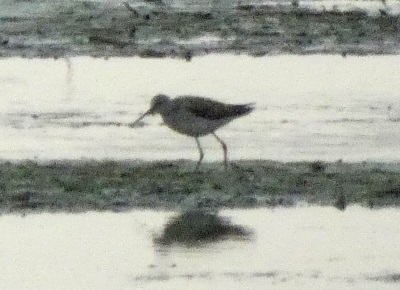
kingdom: Animalia
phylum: Chordata
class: Aves
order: Charadriiformes
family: Scolopacidae
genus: Tringa
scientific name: Tringa stagnatilis
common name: Marsh sandpiper
